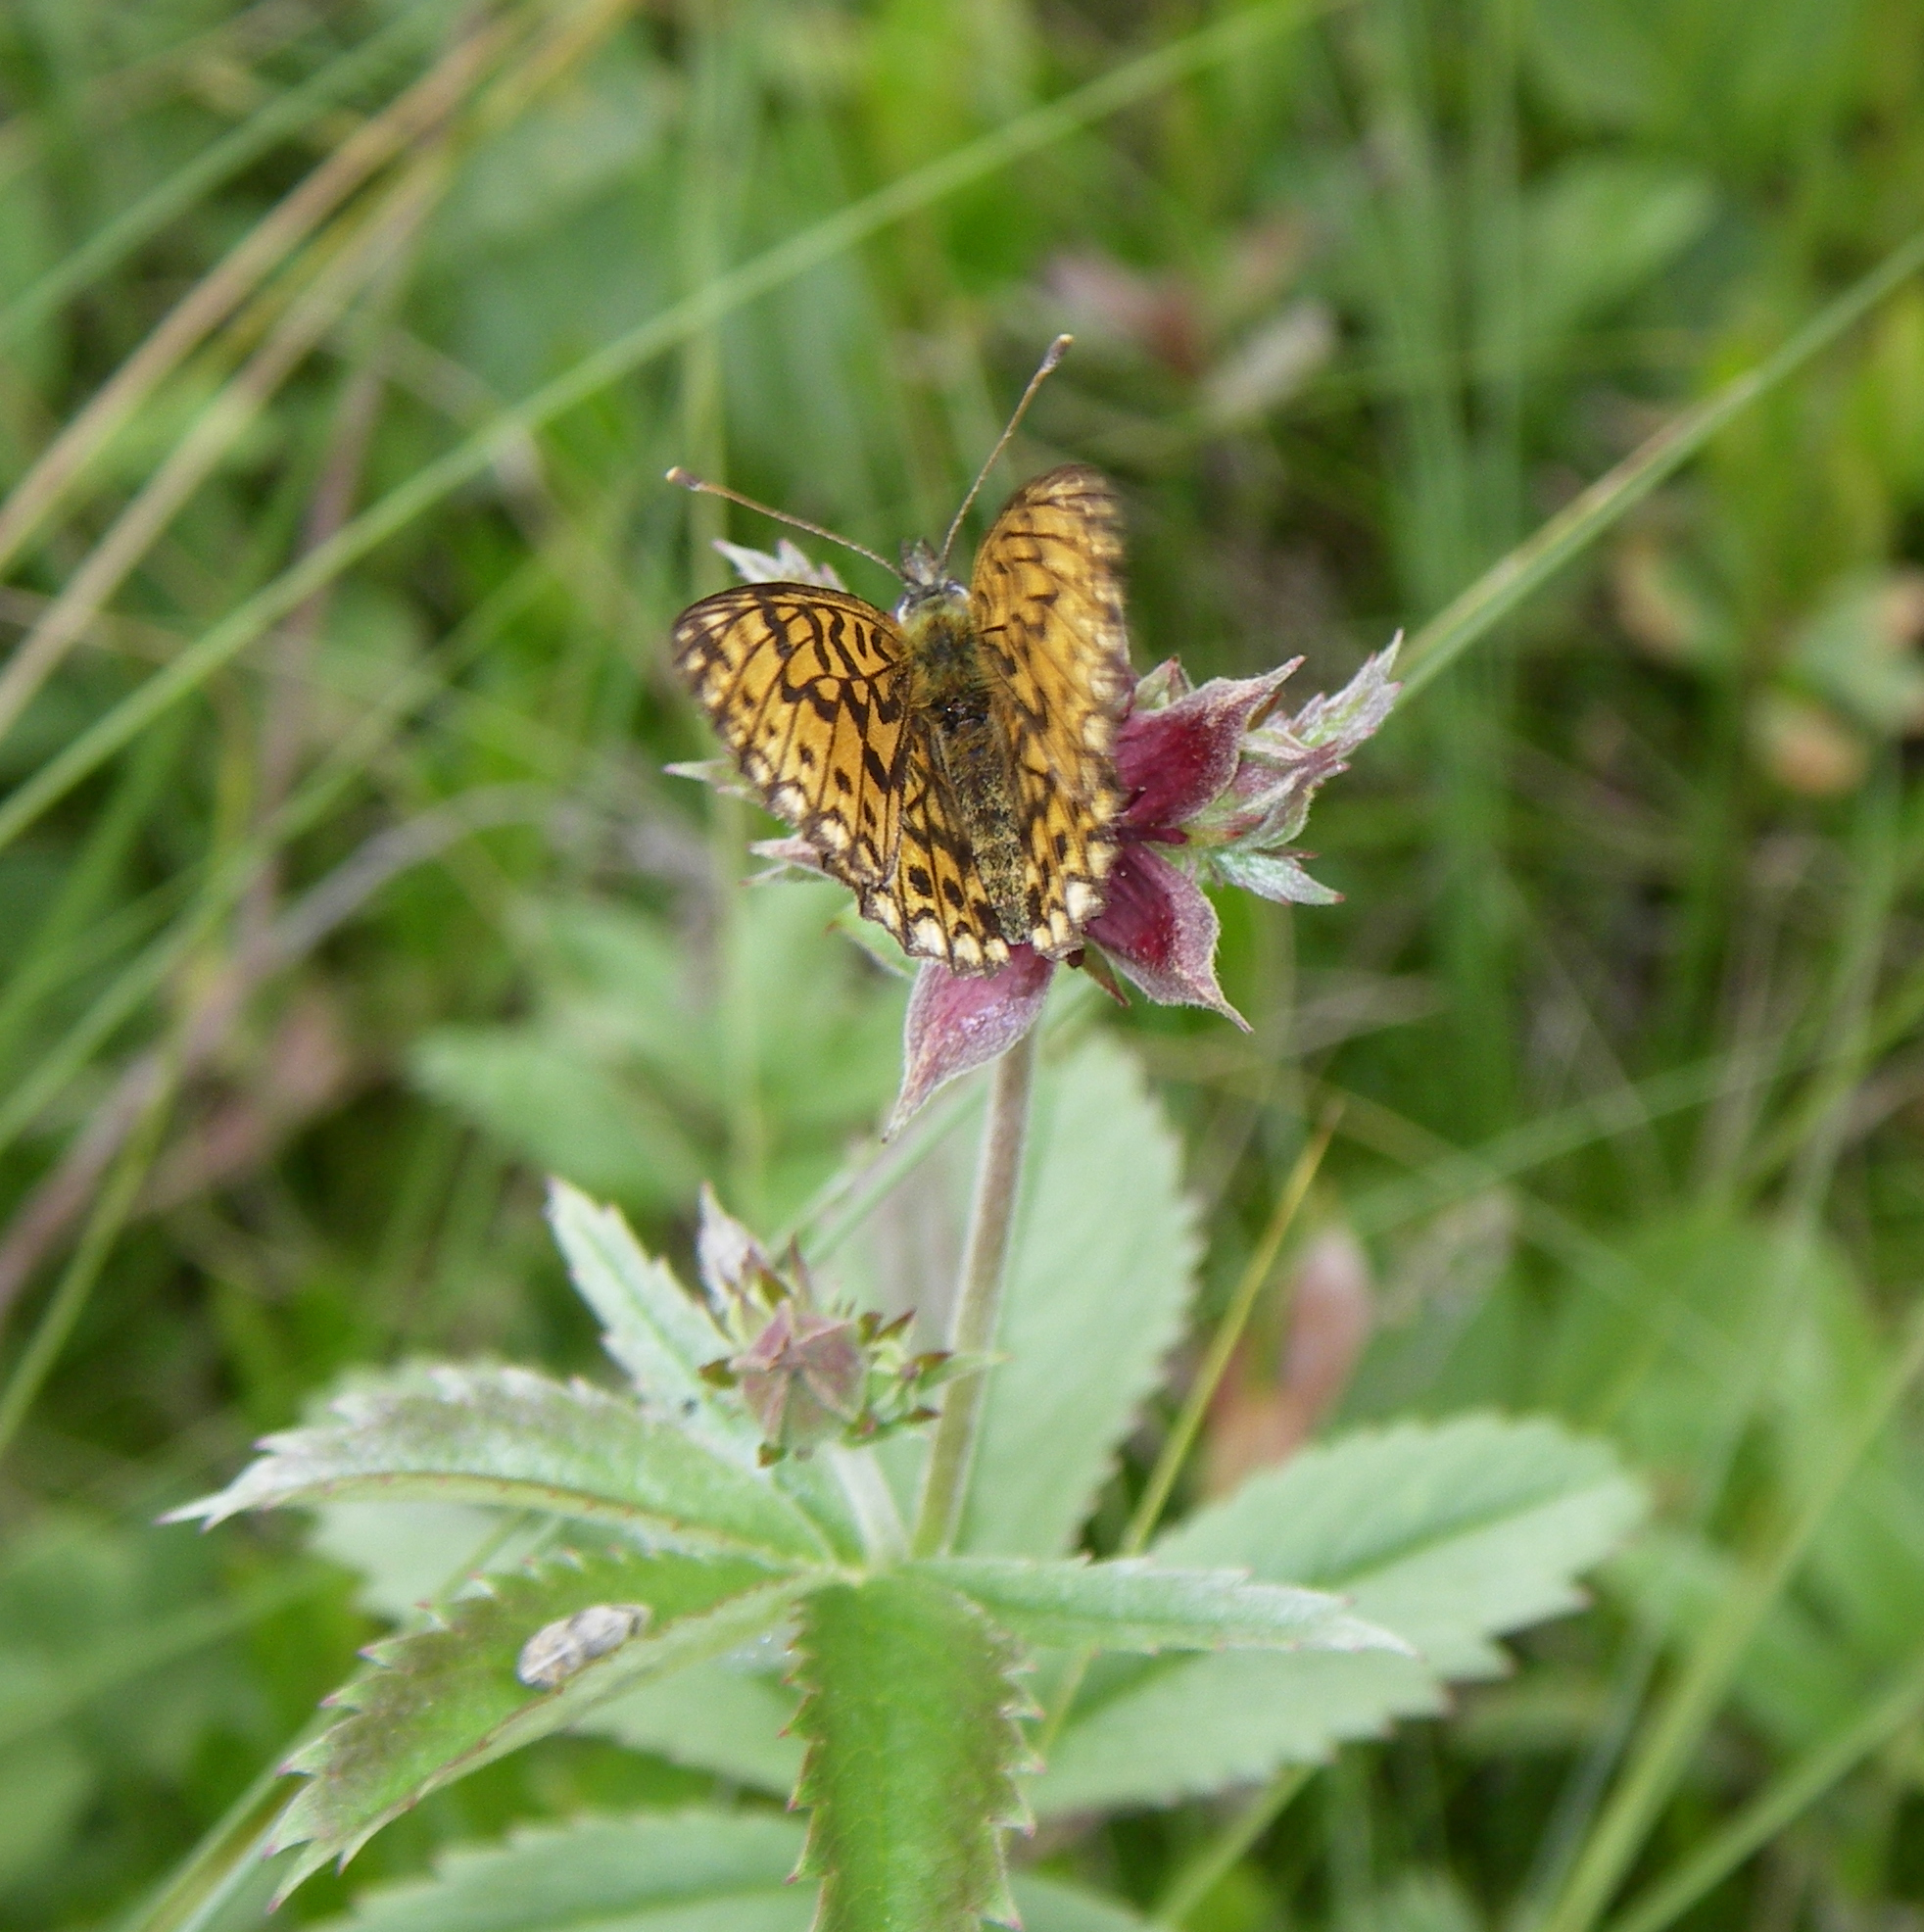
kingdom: Animalia
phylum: Arthropoda
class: Insecta
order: Lepidoptera
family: Nymphalidae
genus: Boloria
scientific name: Boloria selene
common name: Small pearl-bordered fritillary
